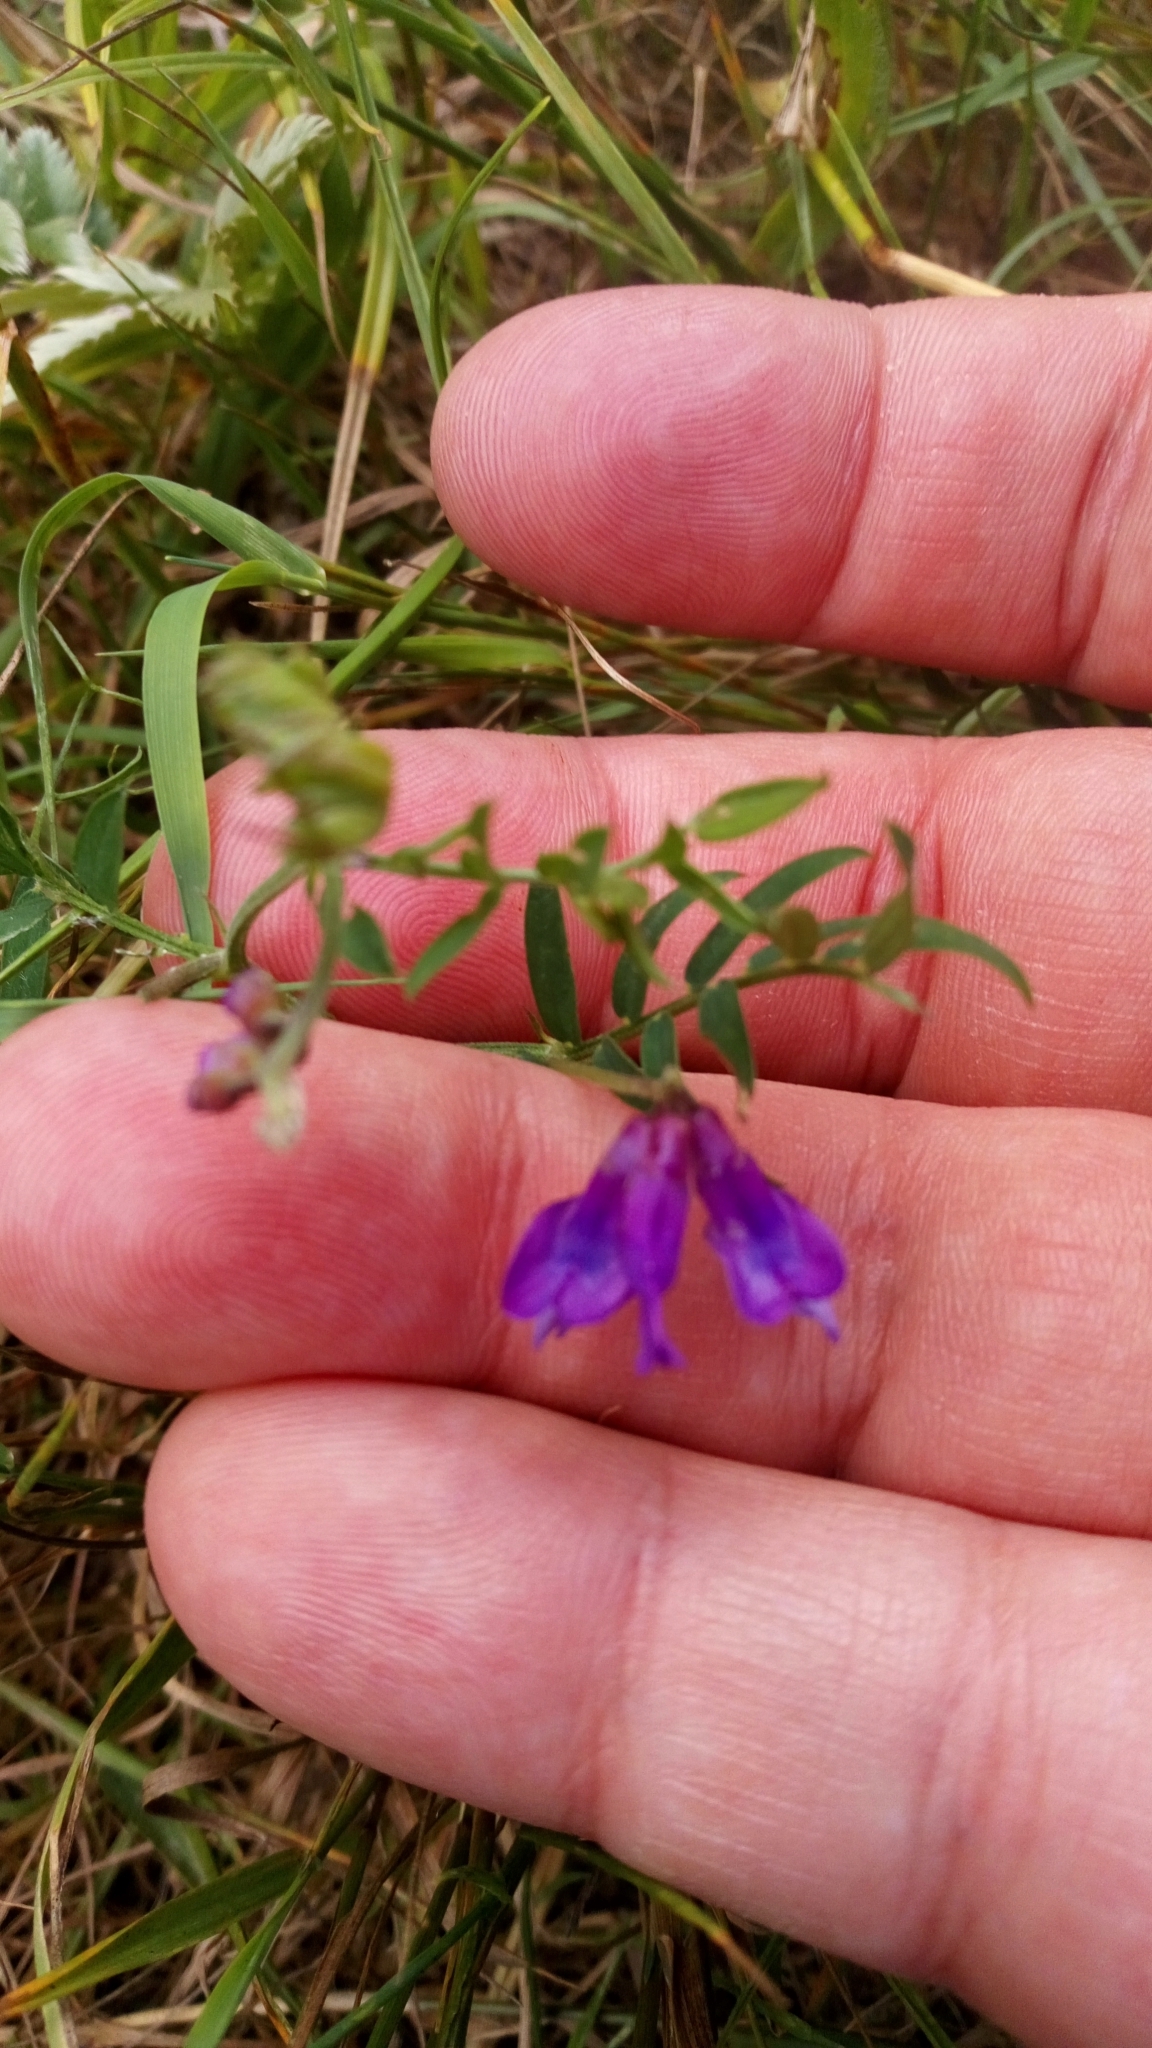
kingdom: Plantae
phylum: Tracheophyta
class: Magnoliopsida
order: Fabales
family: Fabaceae
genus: Vicia
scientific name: Vicia cracca
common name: Bird vetch
